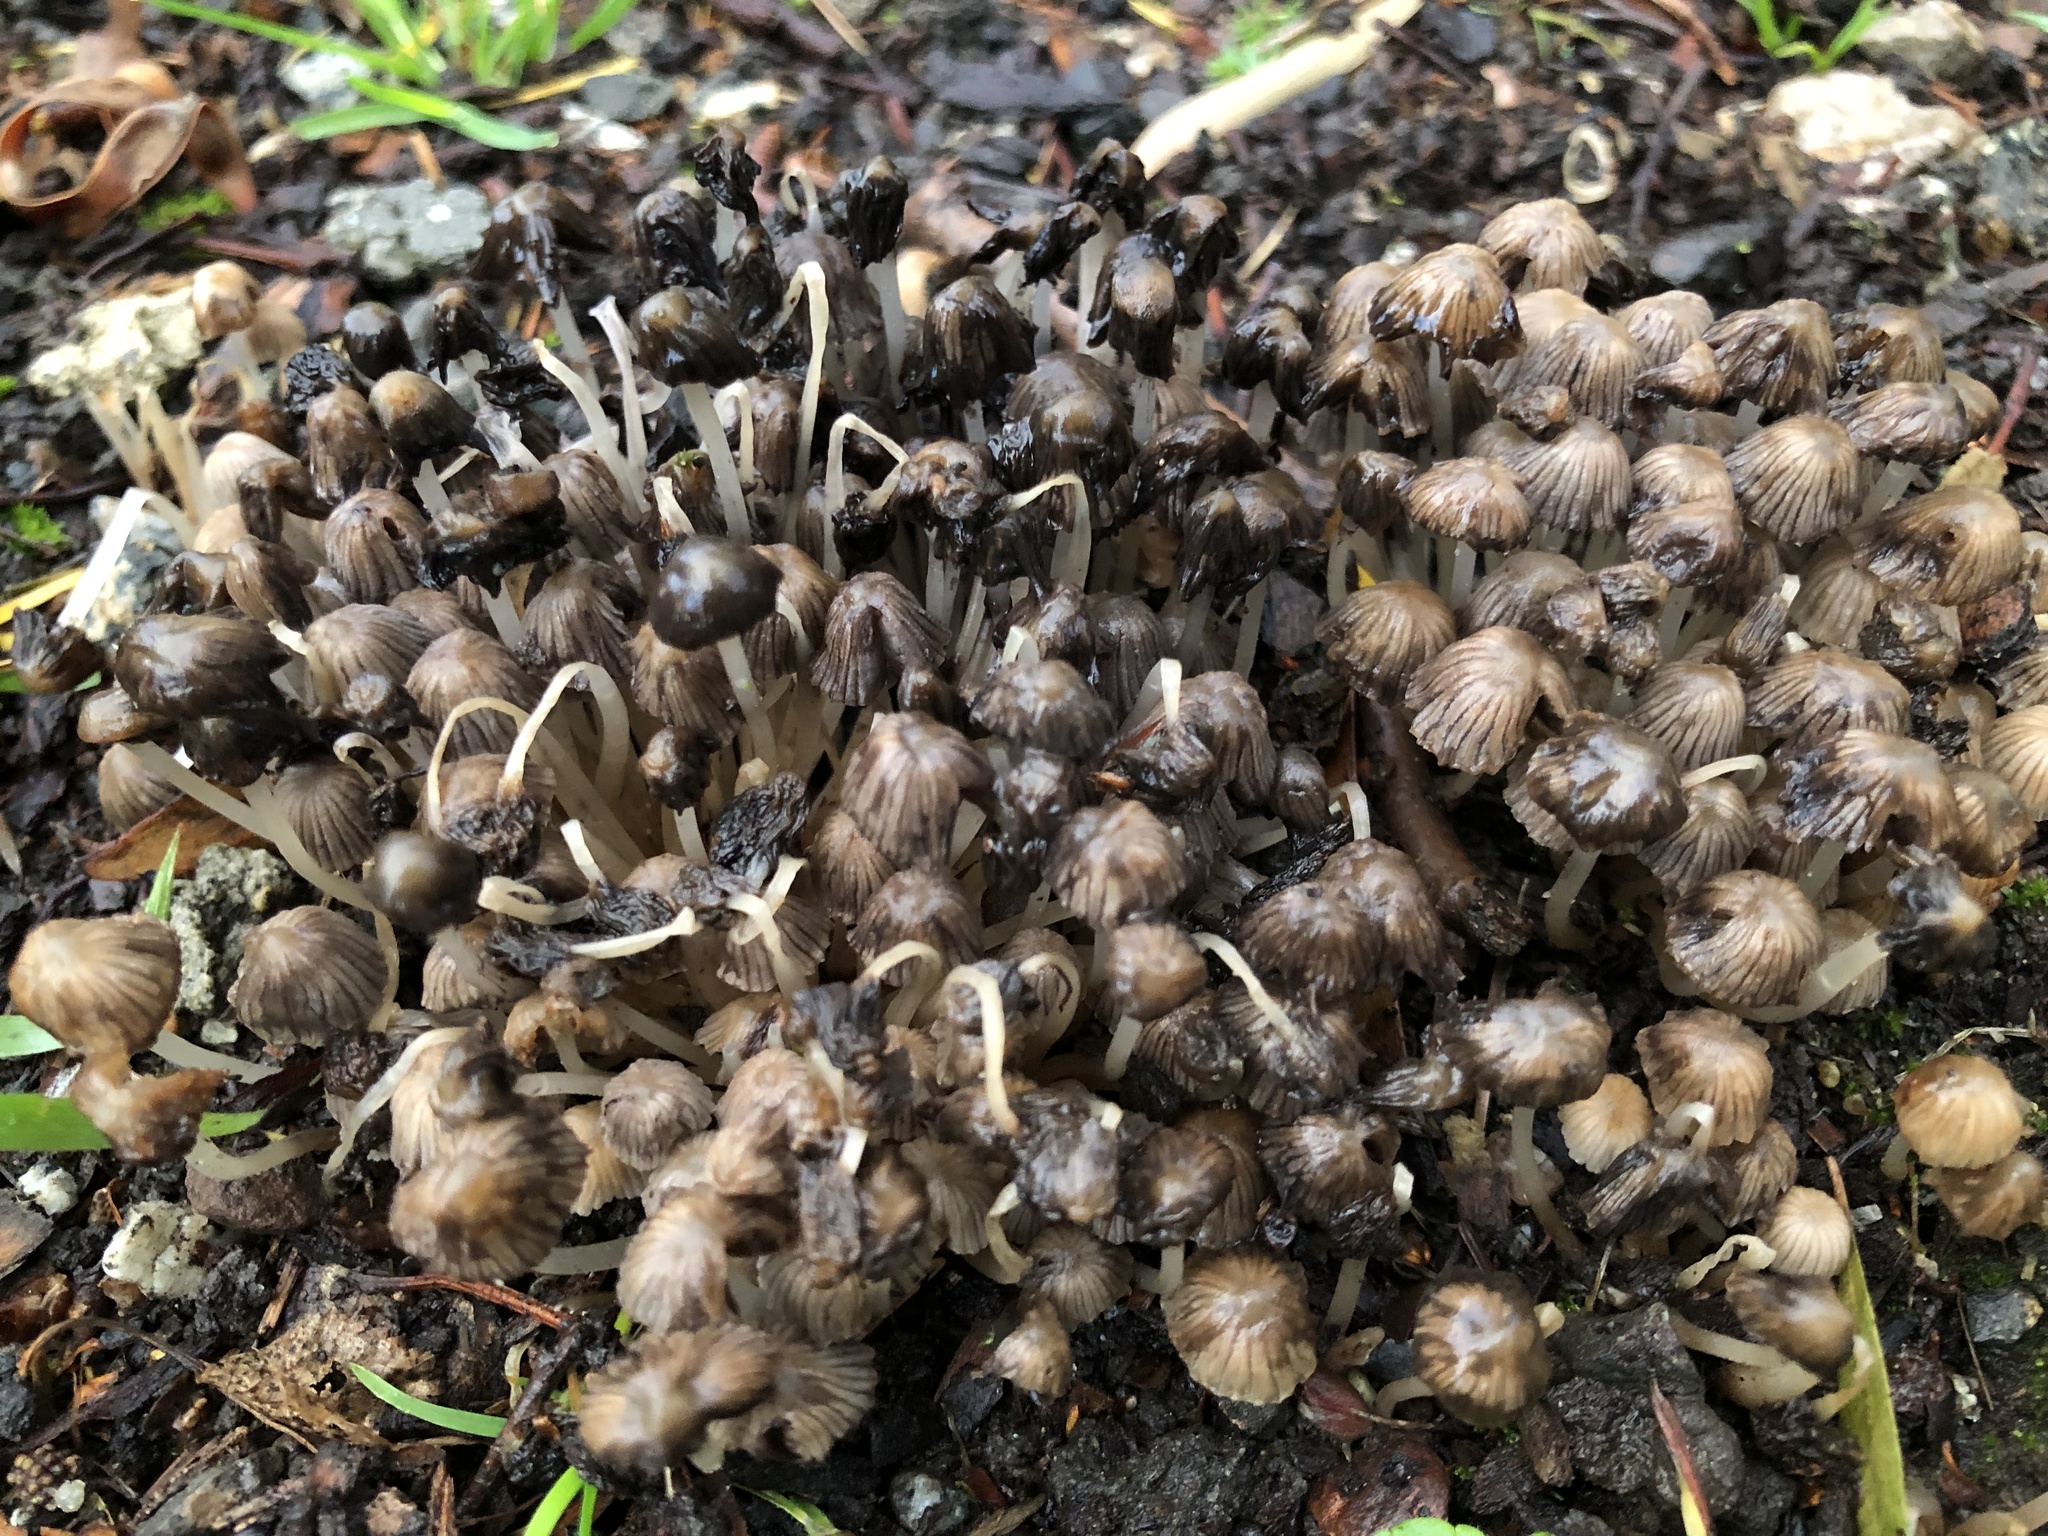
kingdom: Fungi
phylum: Basidiomycota
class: Agaricomycetes
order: Agaricales
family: Psathyrellaceae
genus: Coprinellus
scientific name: Coprinellus micaceus
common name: Glistening ink-cap
